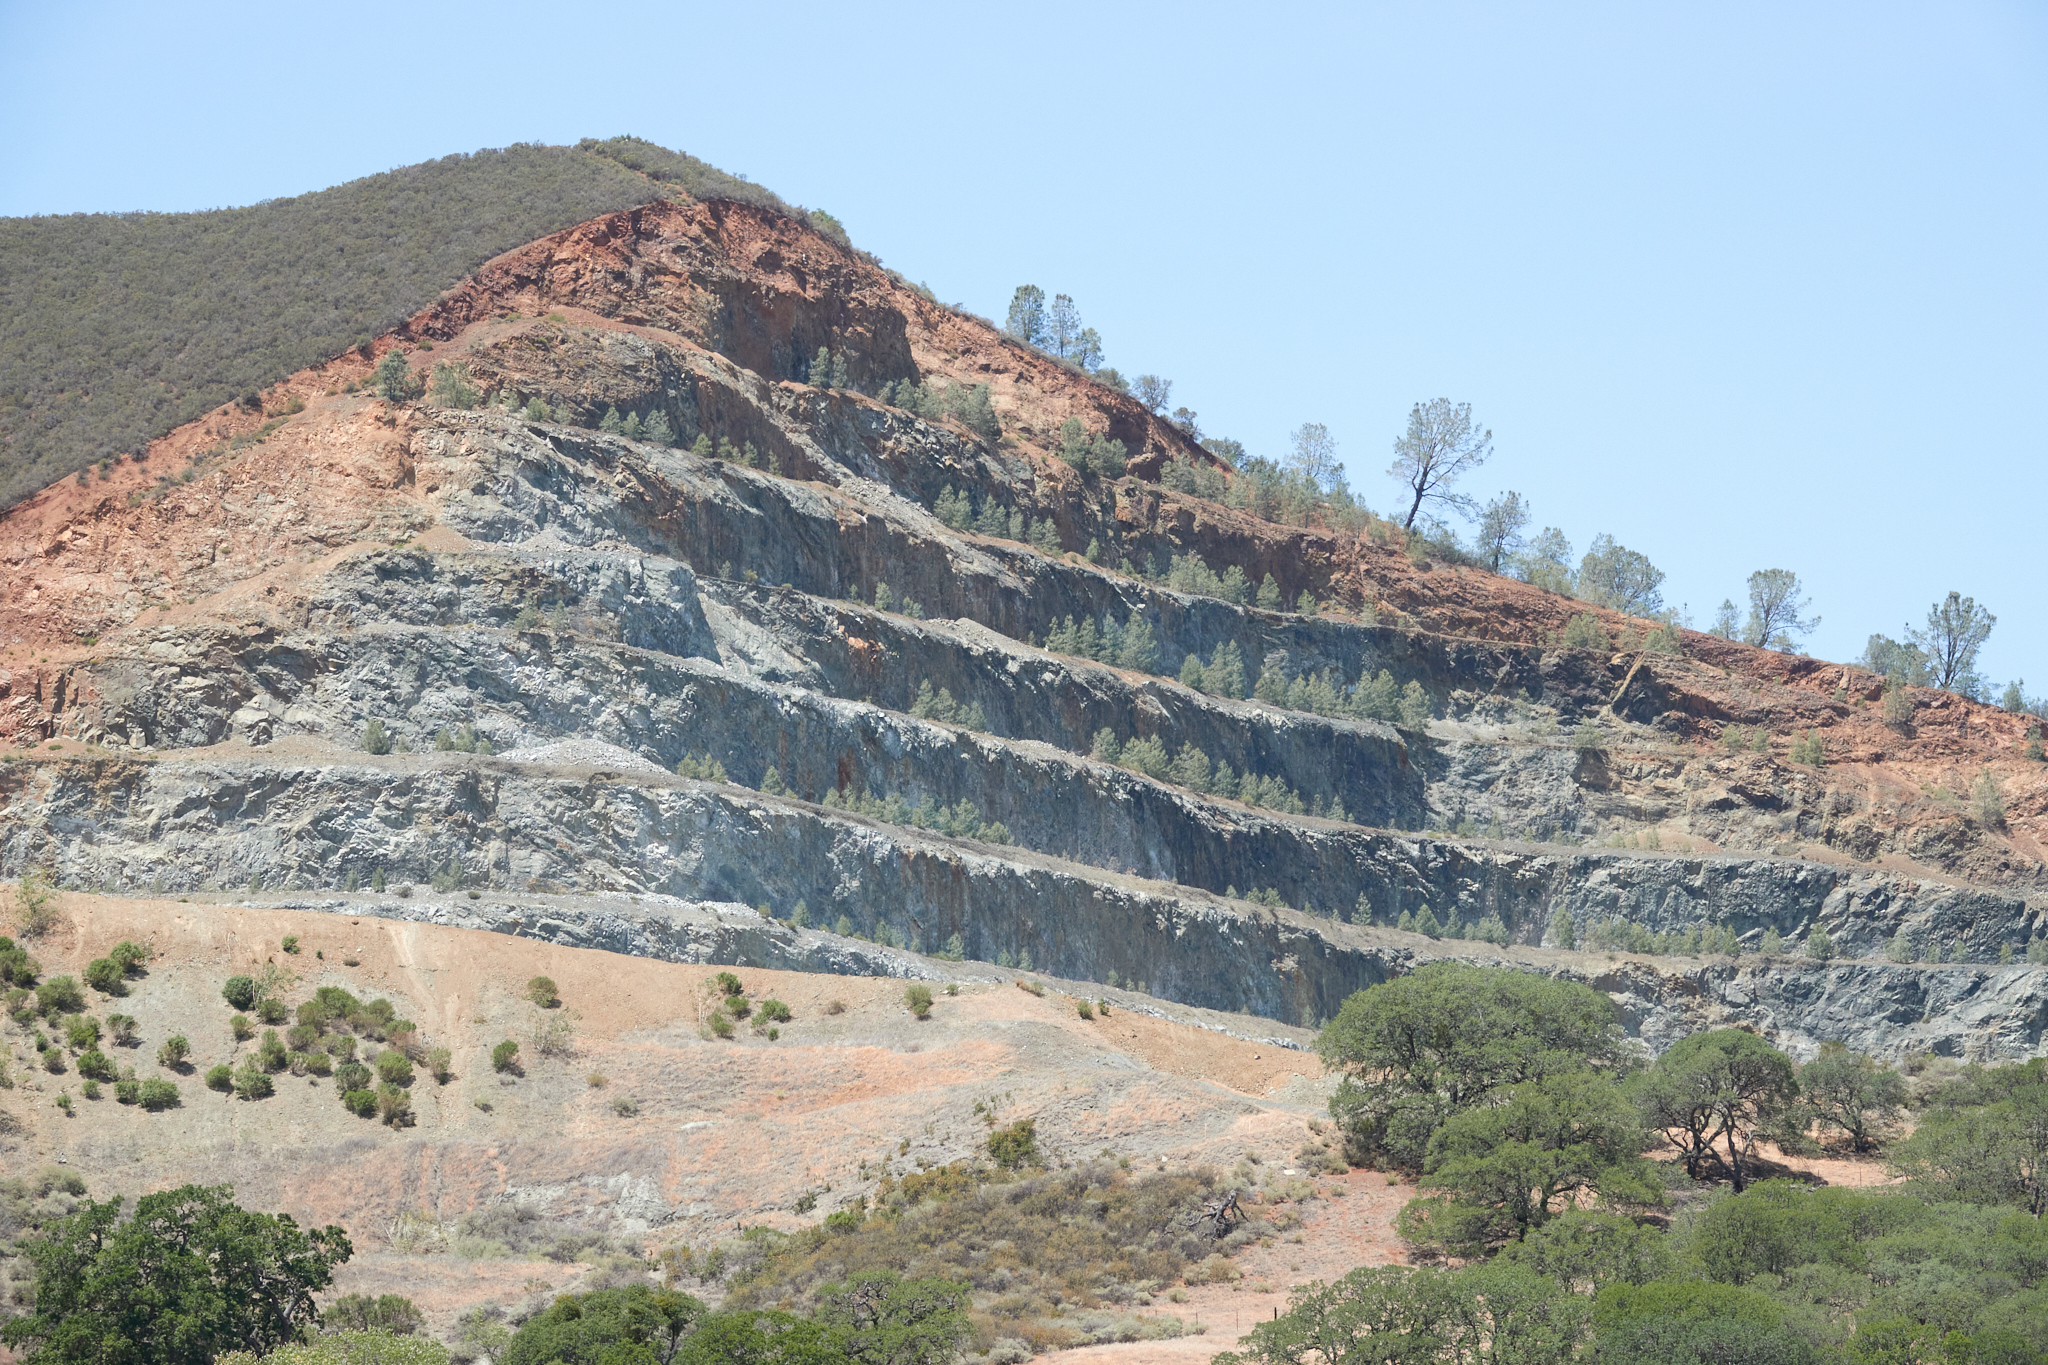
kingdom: Plantae
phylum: Tracheophyta
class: Pinopsida
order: Pinales
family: Pinaceae
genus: Pinus
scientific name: Pinus sabiniana
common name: Bull pine
